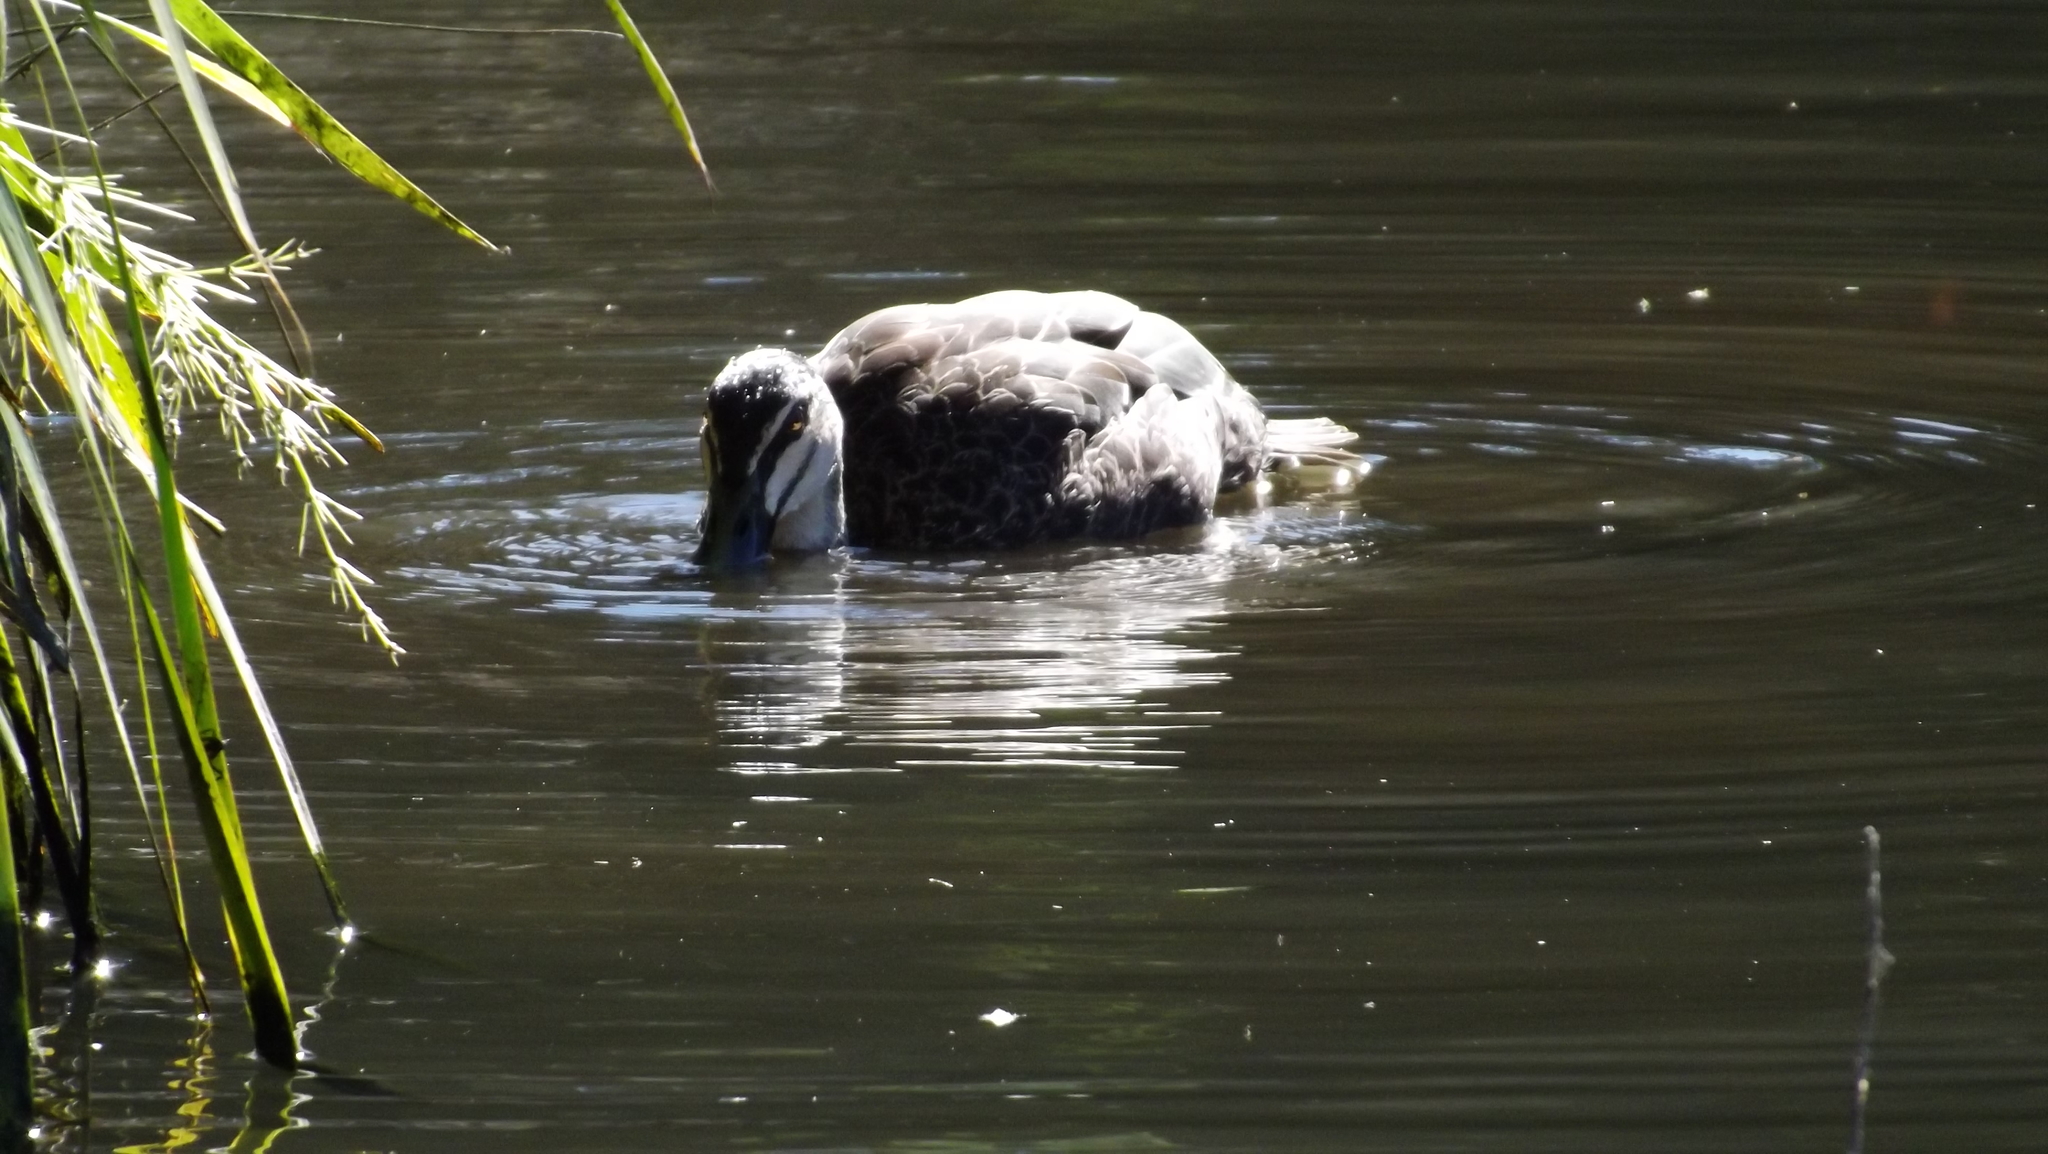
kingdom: Animalia
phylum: Chordata
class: Aves
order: Anseriformes
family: Anatidae
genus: Anas
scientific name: Anas superciliosa
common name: Pacific black duck
